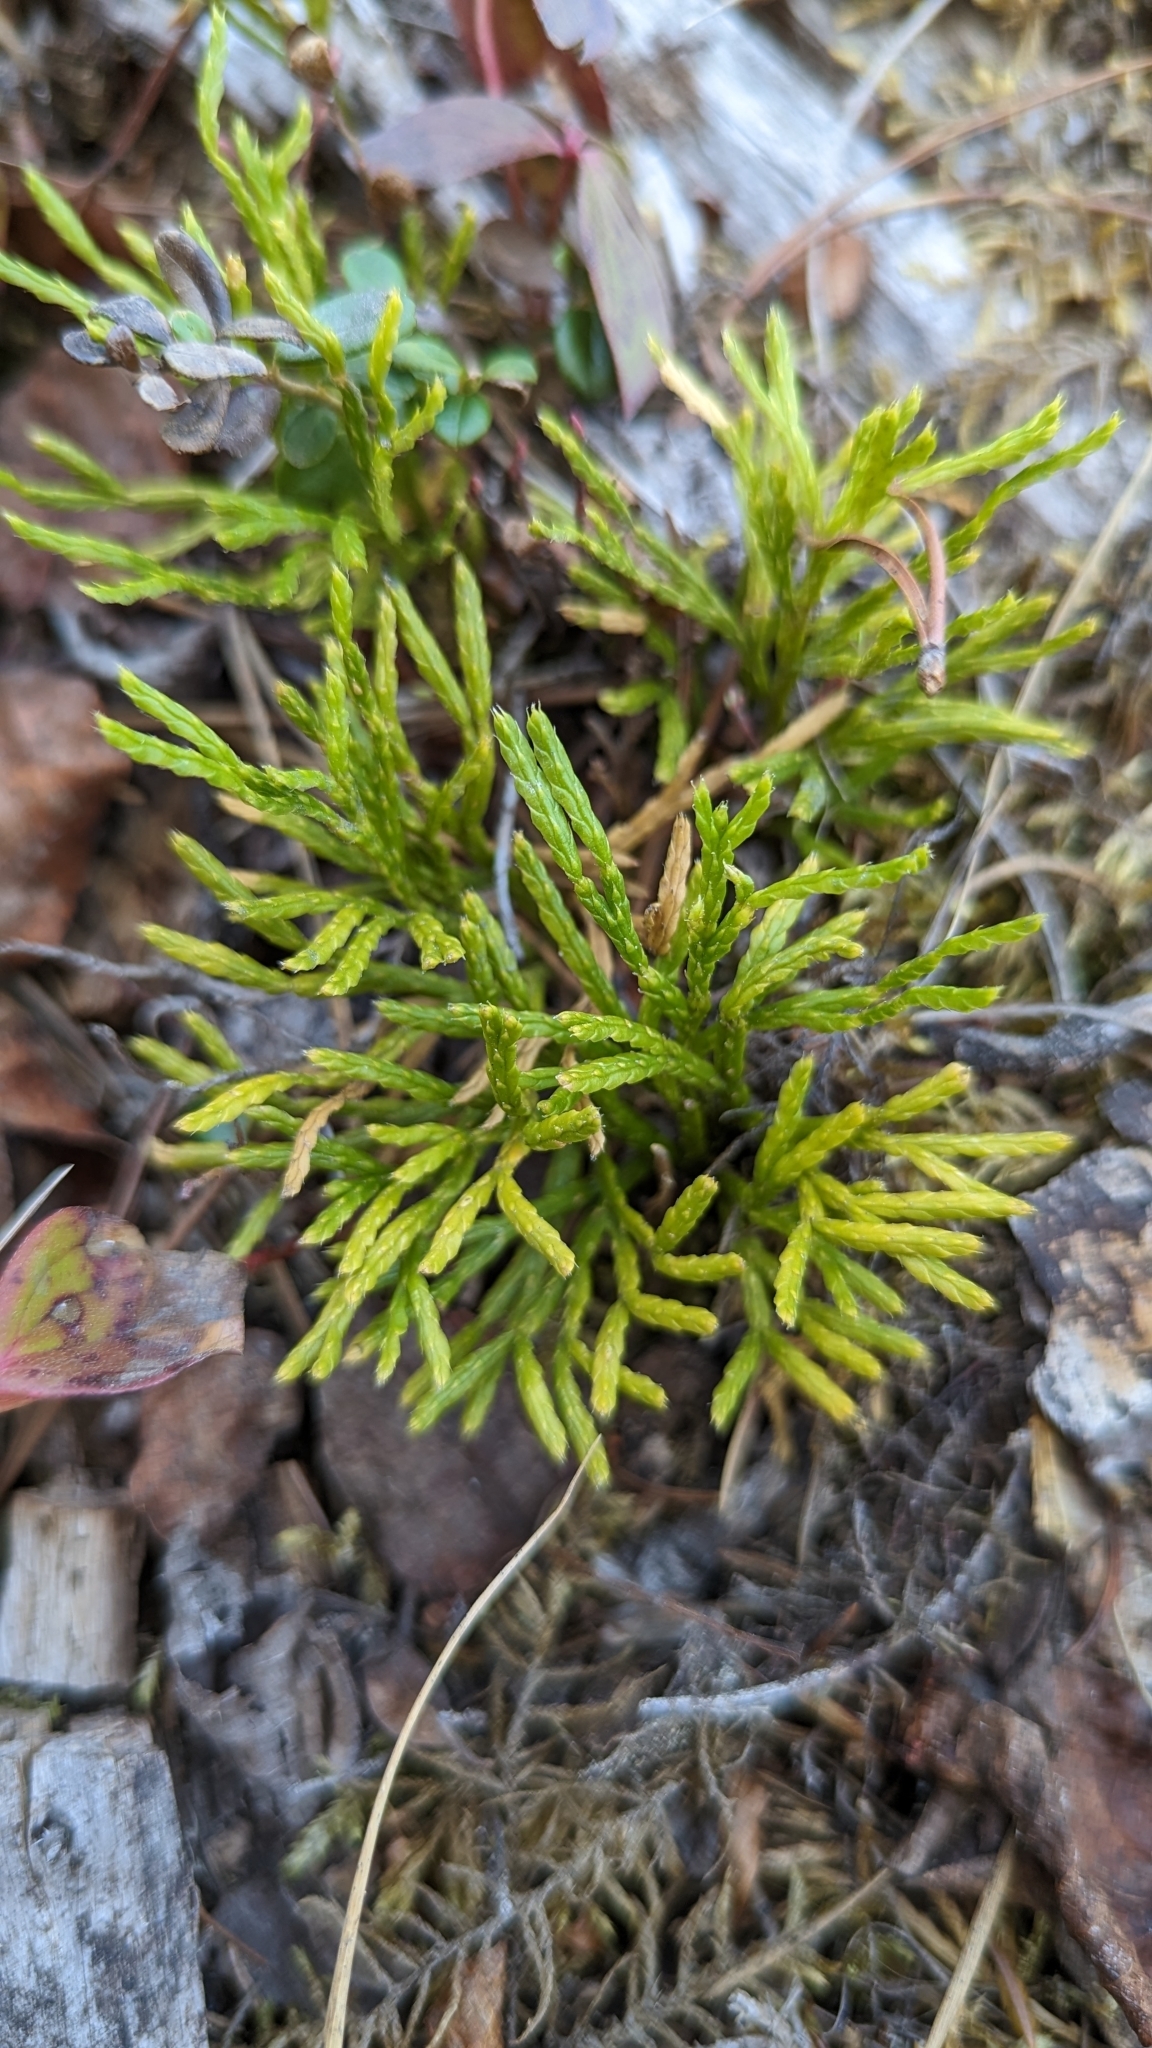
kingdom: Plantae
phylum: Tracheophyta
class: Lycopodiopsida
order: Lycopodiales
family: Lycopodiaceae
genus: Diphasiastrum
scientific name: Diphasiastrum complanatum
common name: Northern running-pine
